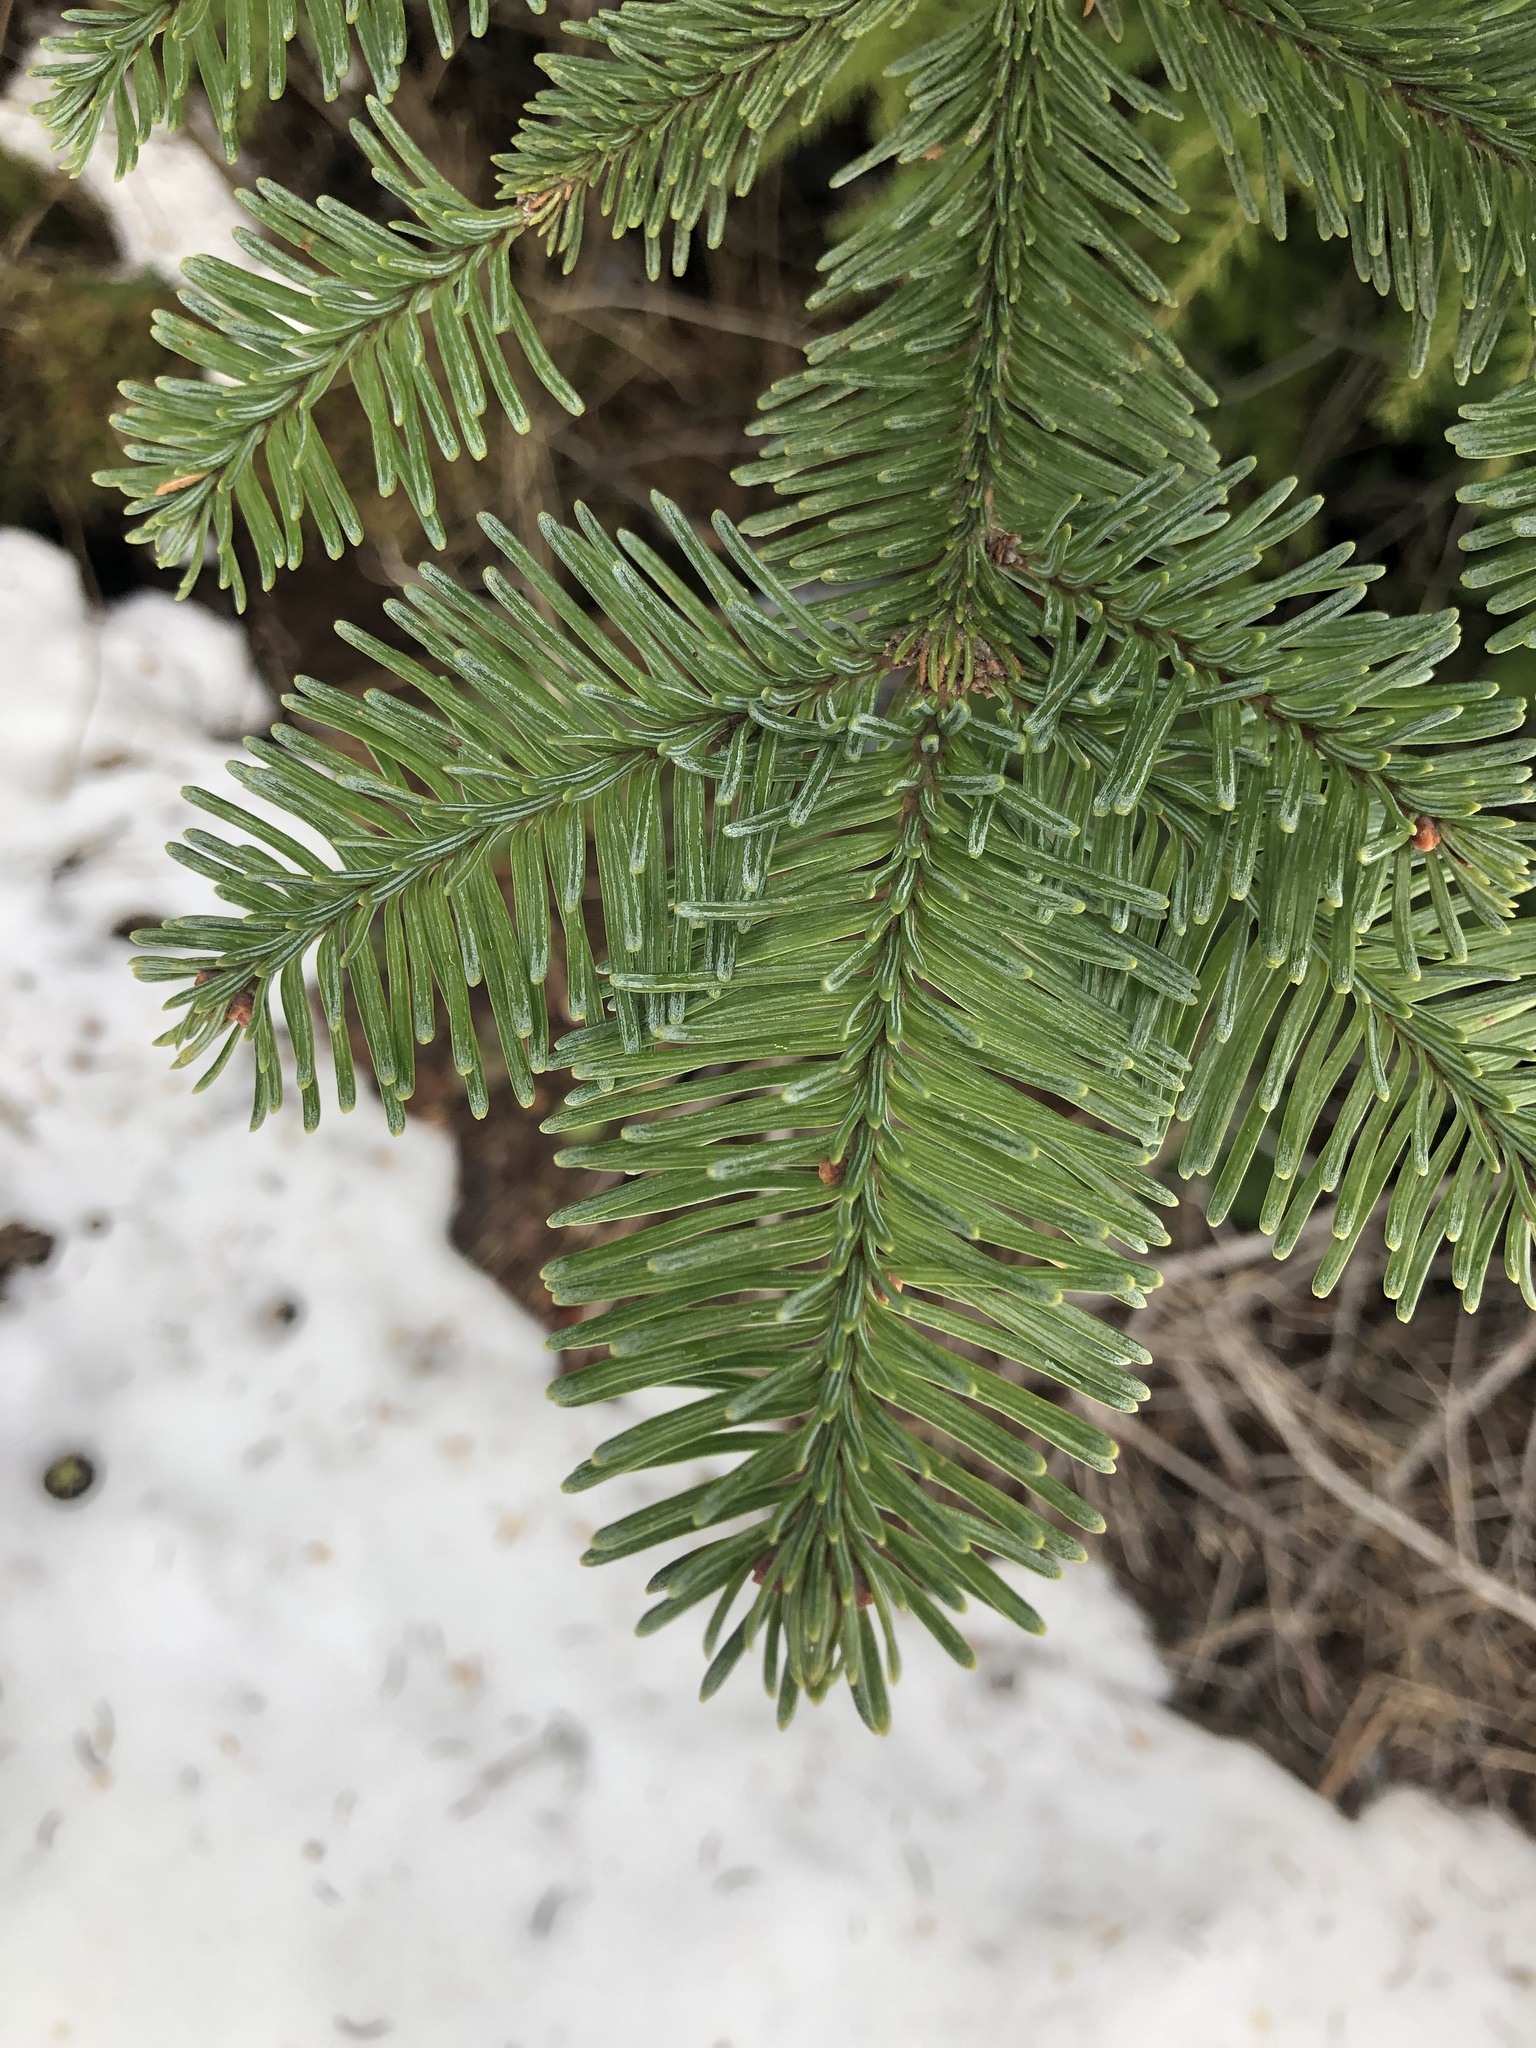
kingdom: Plantae
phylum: Tracheophyta
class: Pinopsida
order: Pinales
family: Pinaceae
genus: Abies
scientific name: Abies procera
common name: Noble fir
